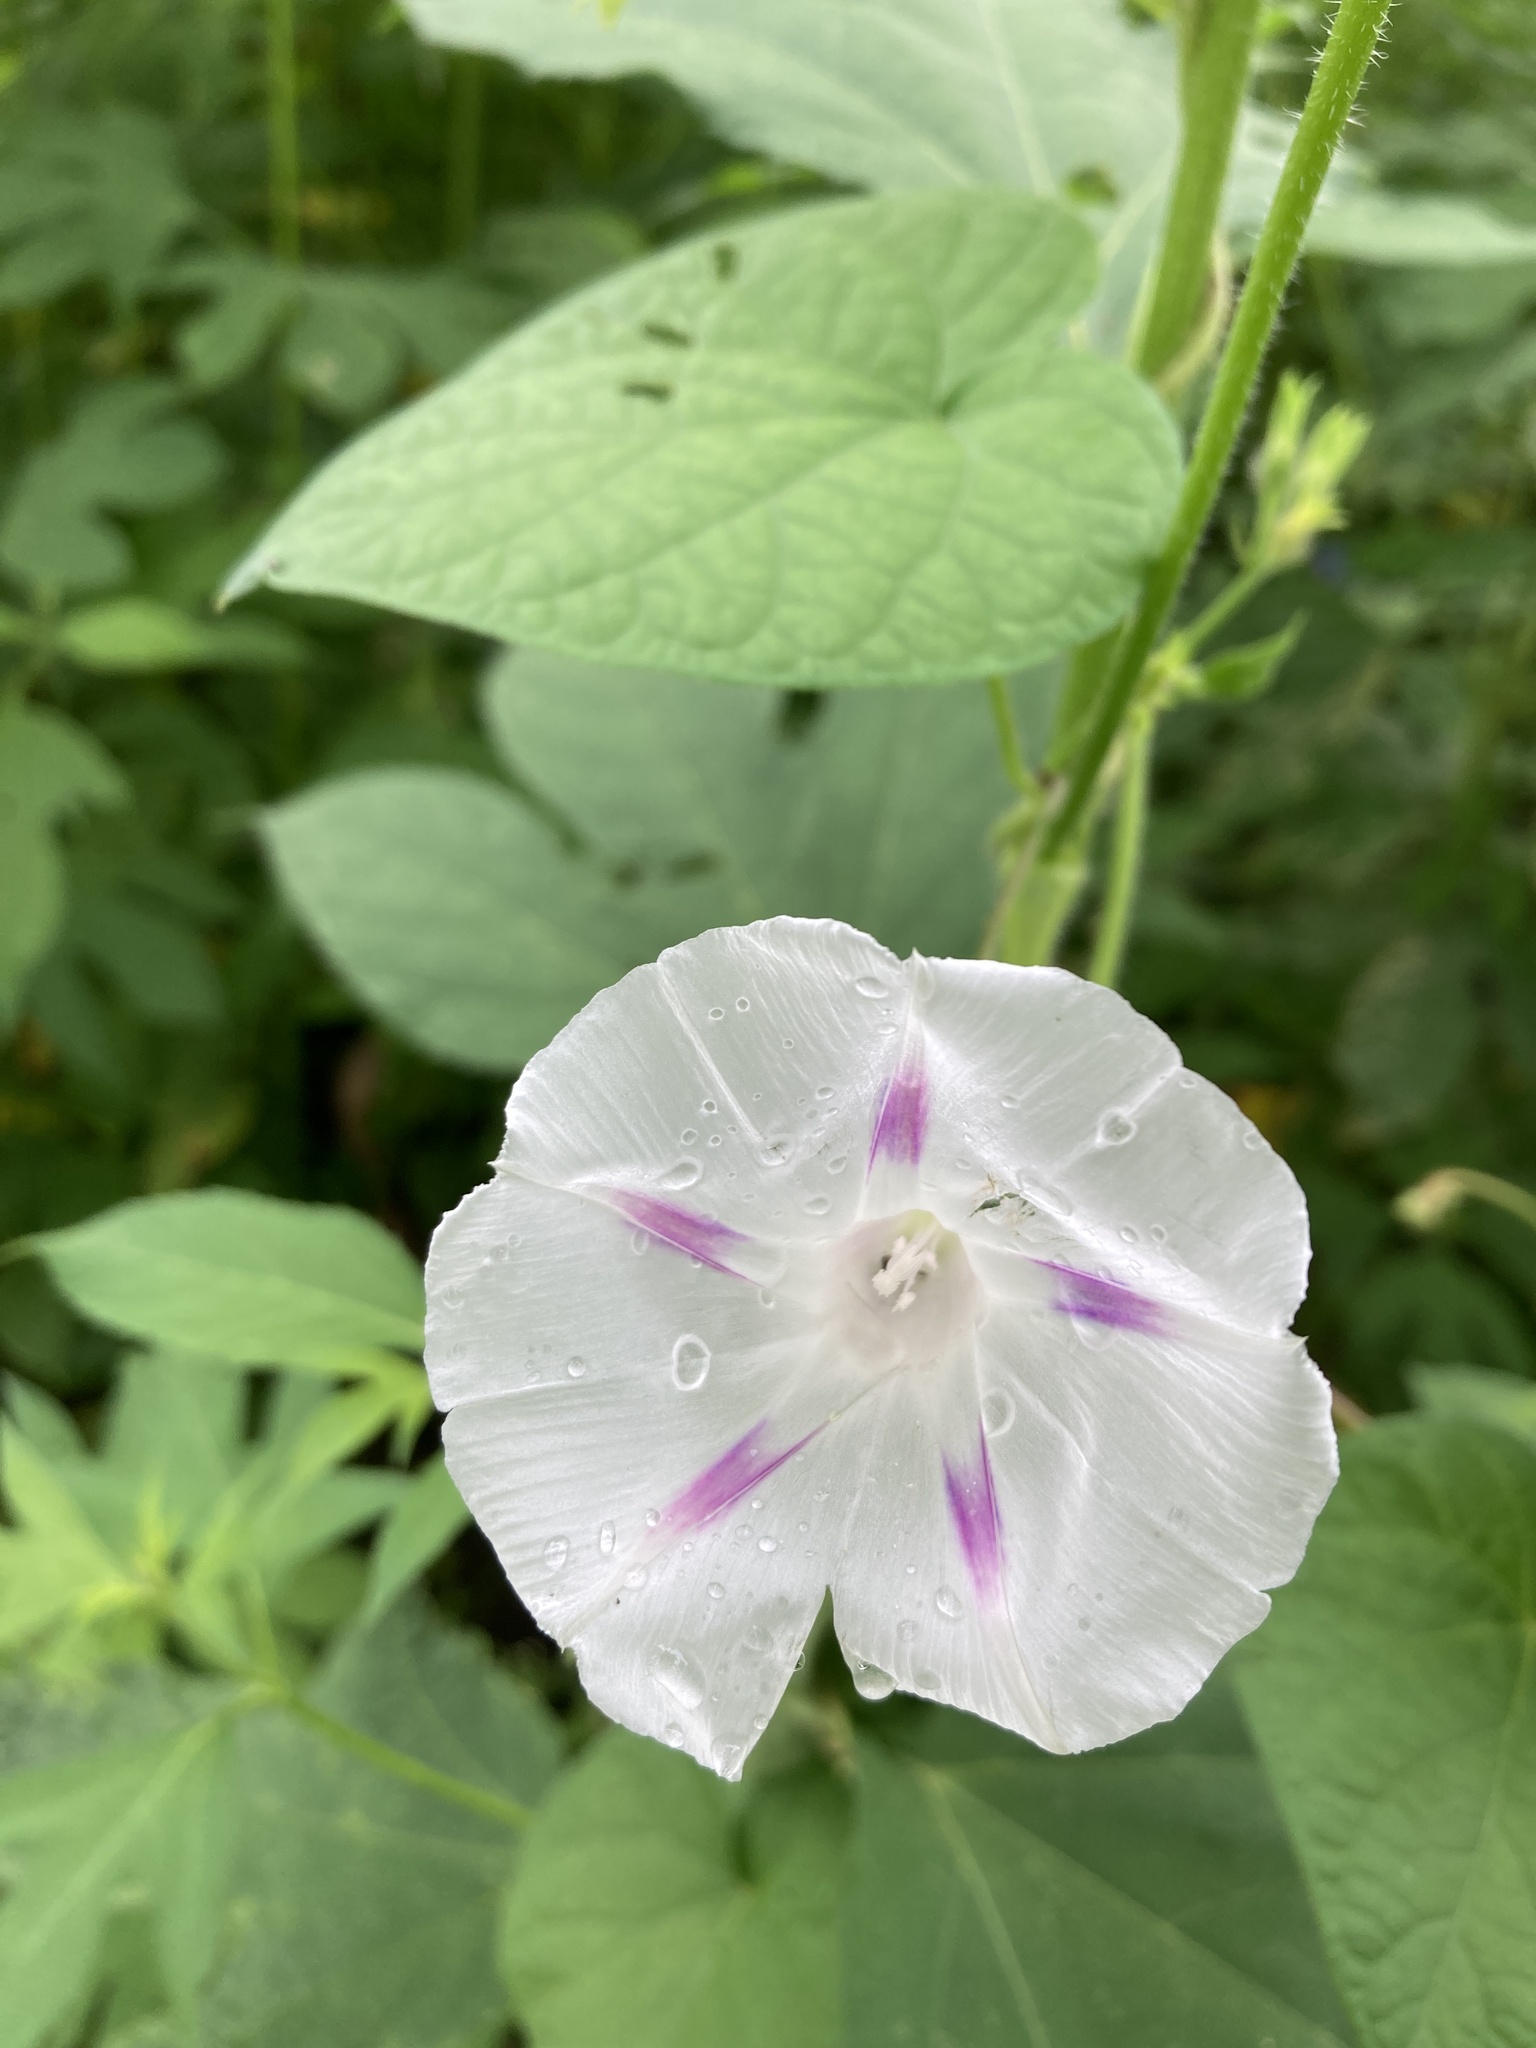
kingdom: Plantae
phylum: Tracheophyta
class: Magnoliopsida
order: Solanales
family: Convolvulaceae
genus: Ipomoea
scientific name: Ipomoea purpurea
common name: Common morning-glory
